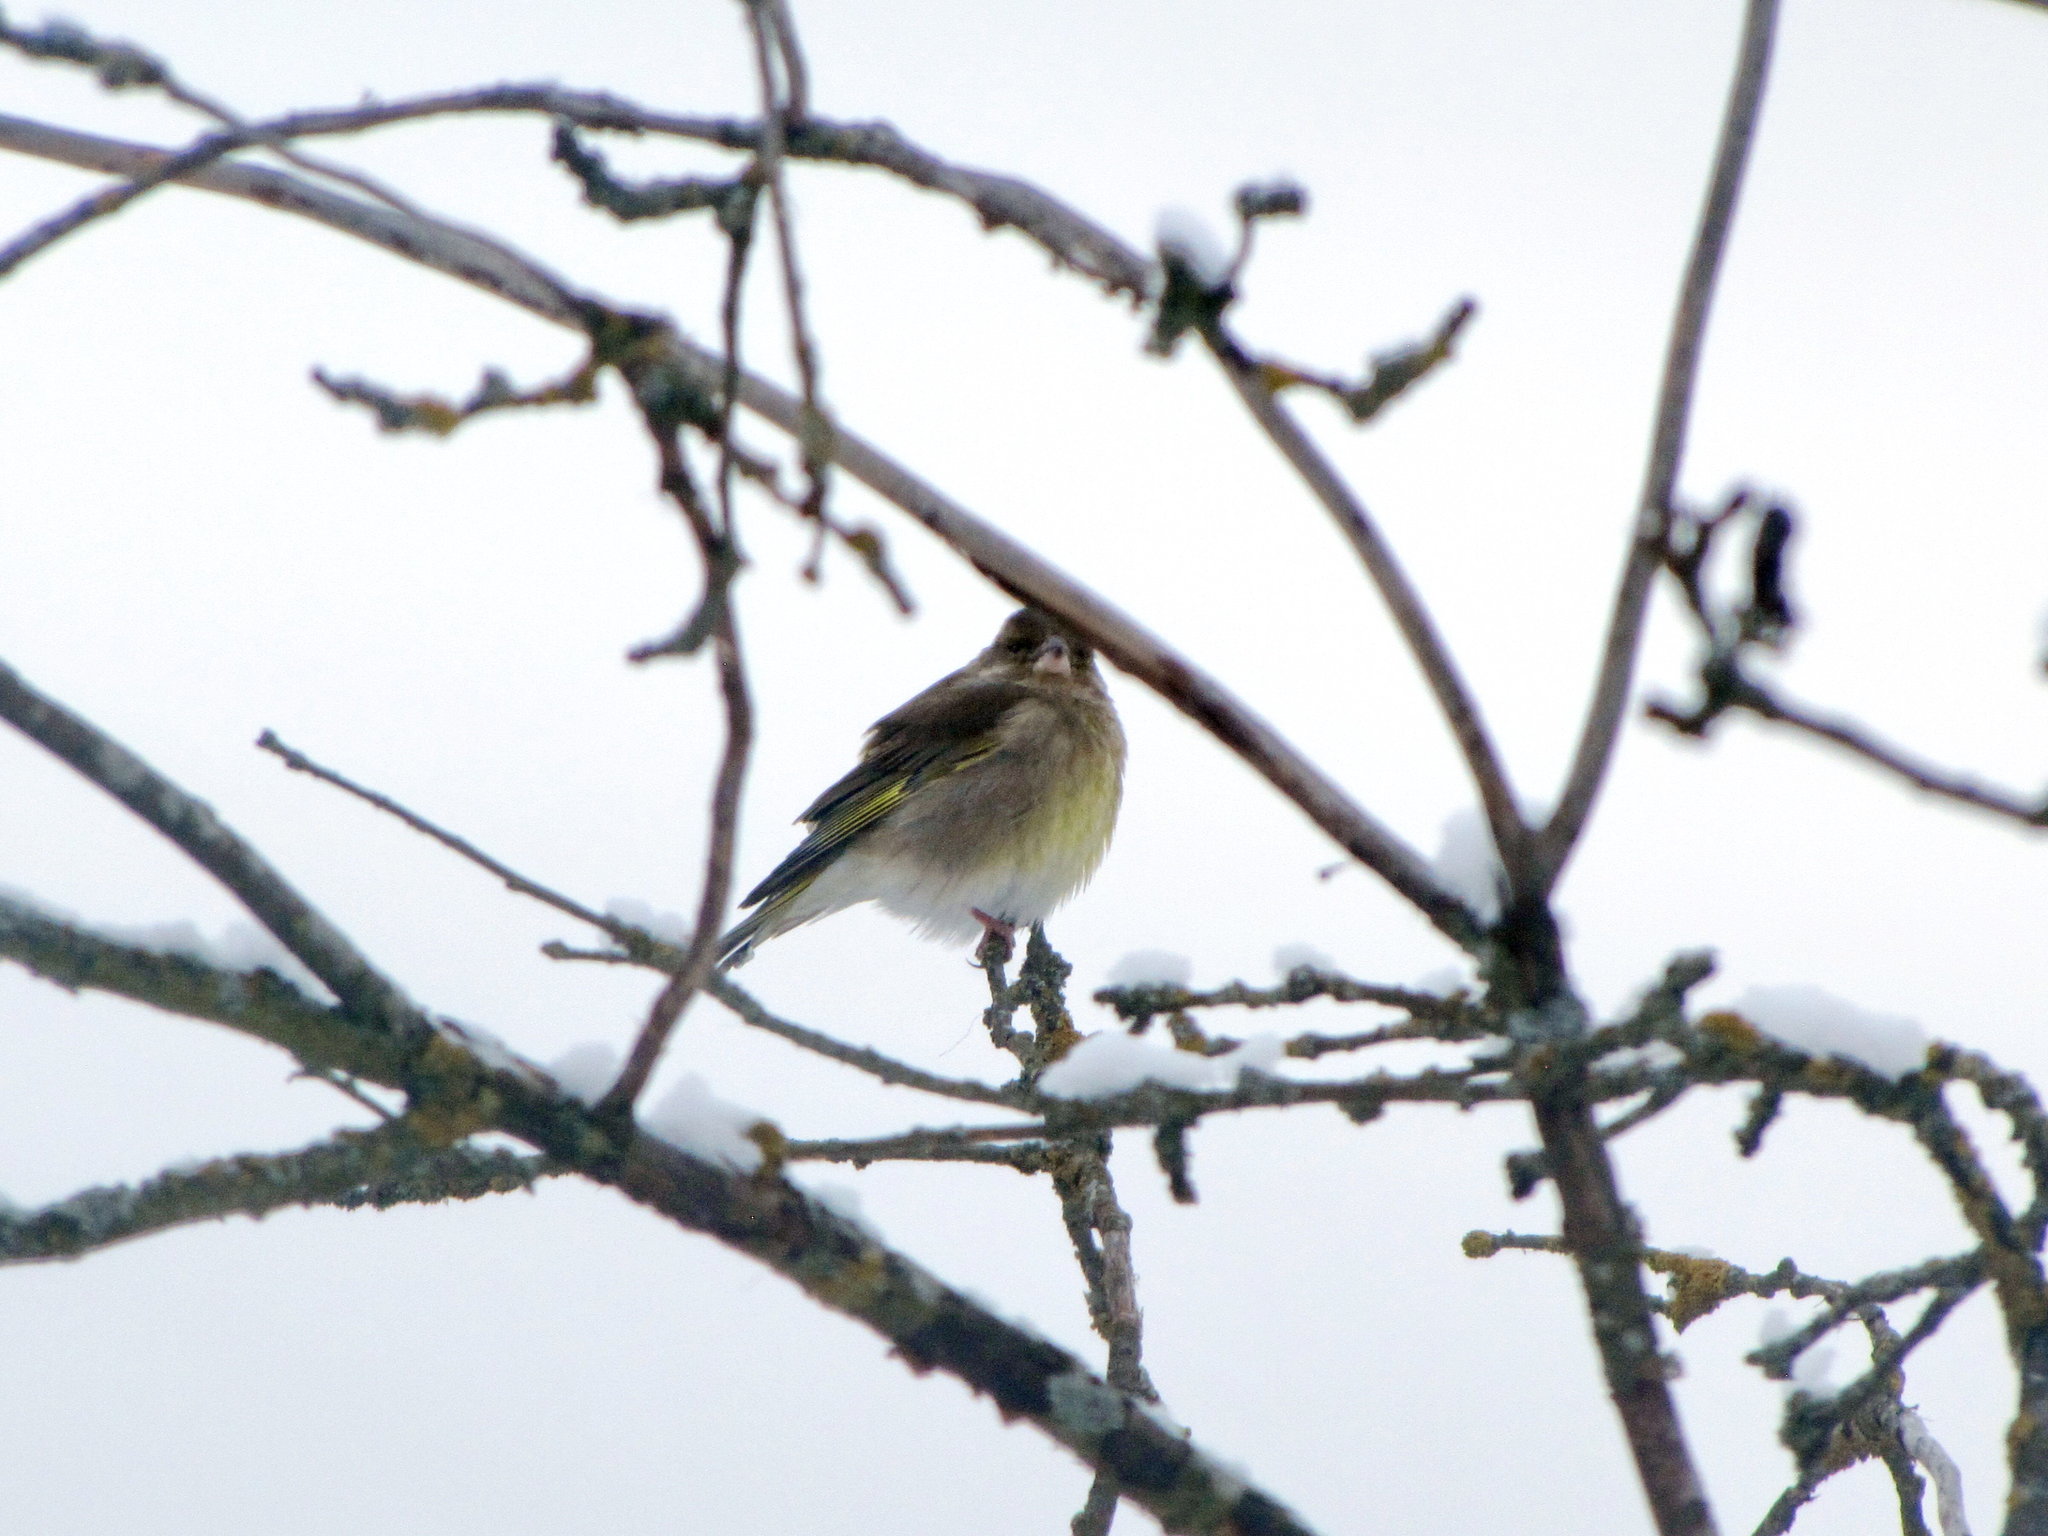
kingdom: Plantae
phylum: Tracheophyta
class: Liliopsida
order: Poales
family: Poaceae
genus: Chloris
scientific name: Chloris chloris
